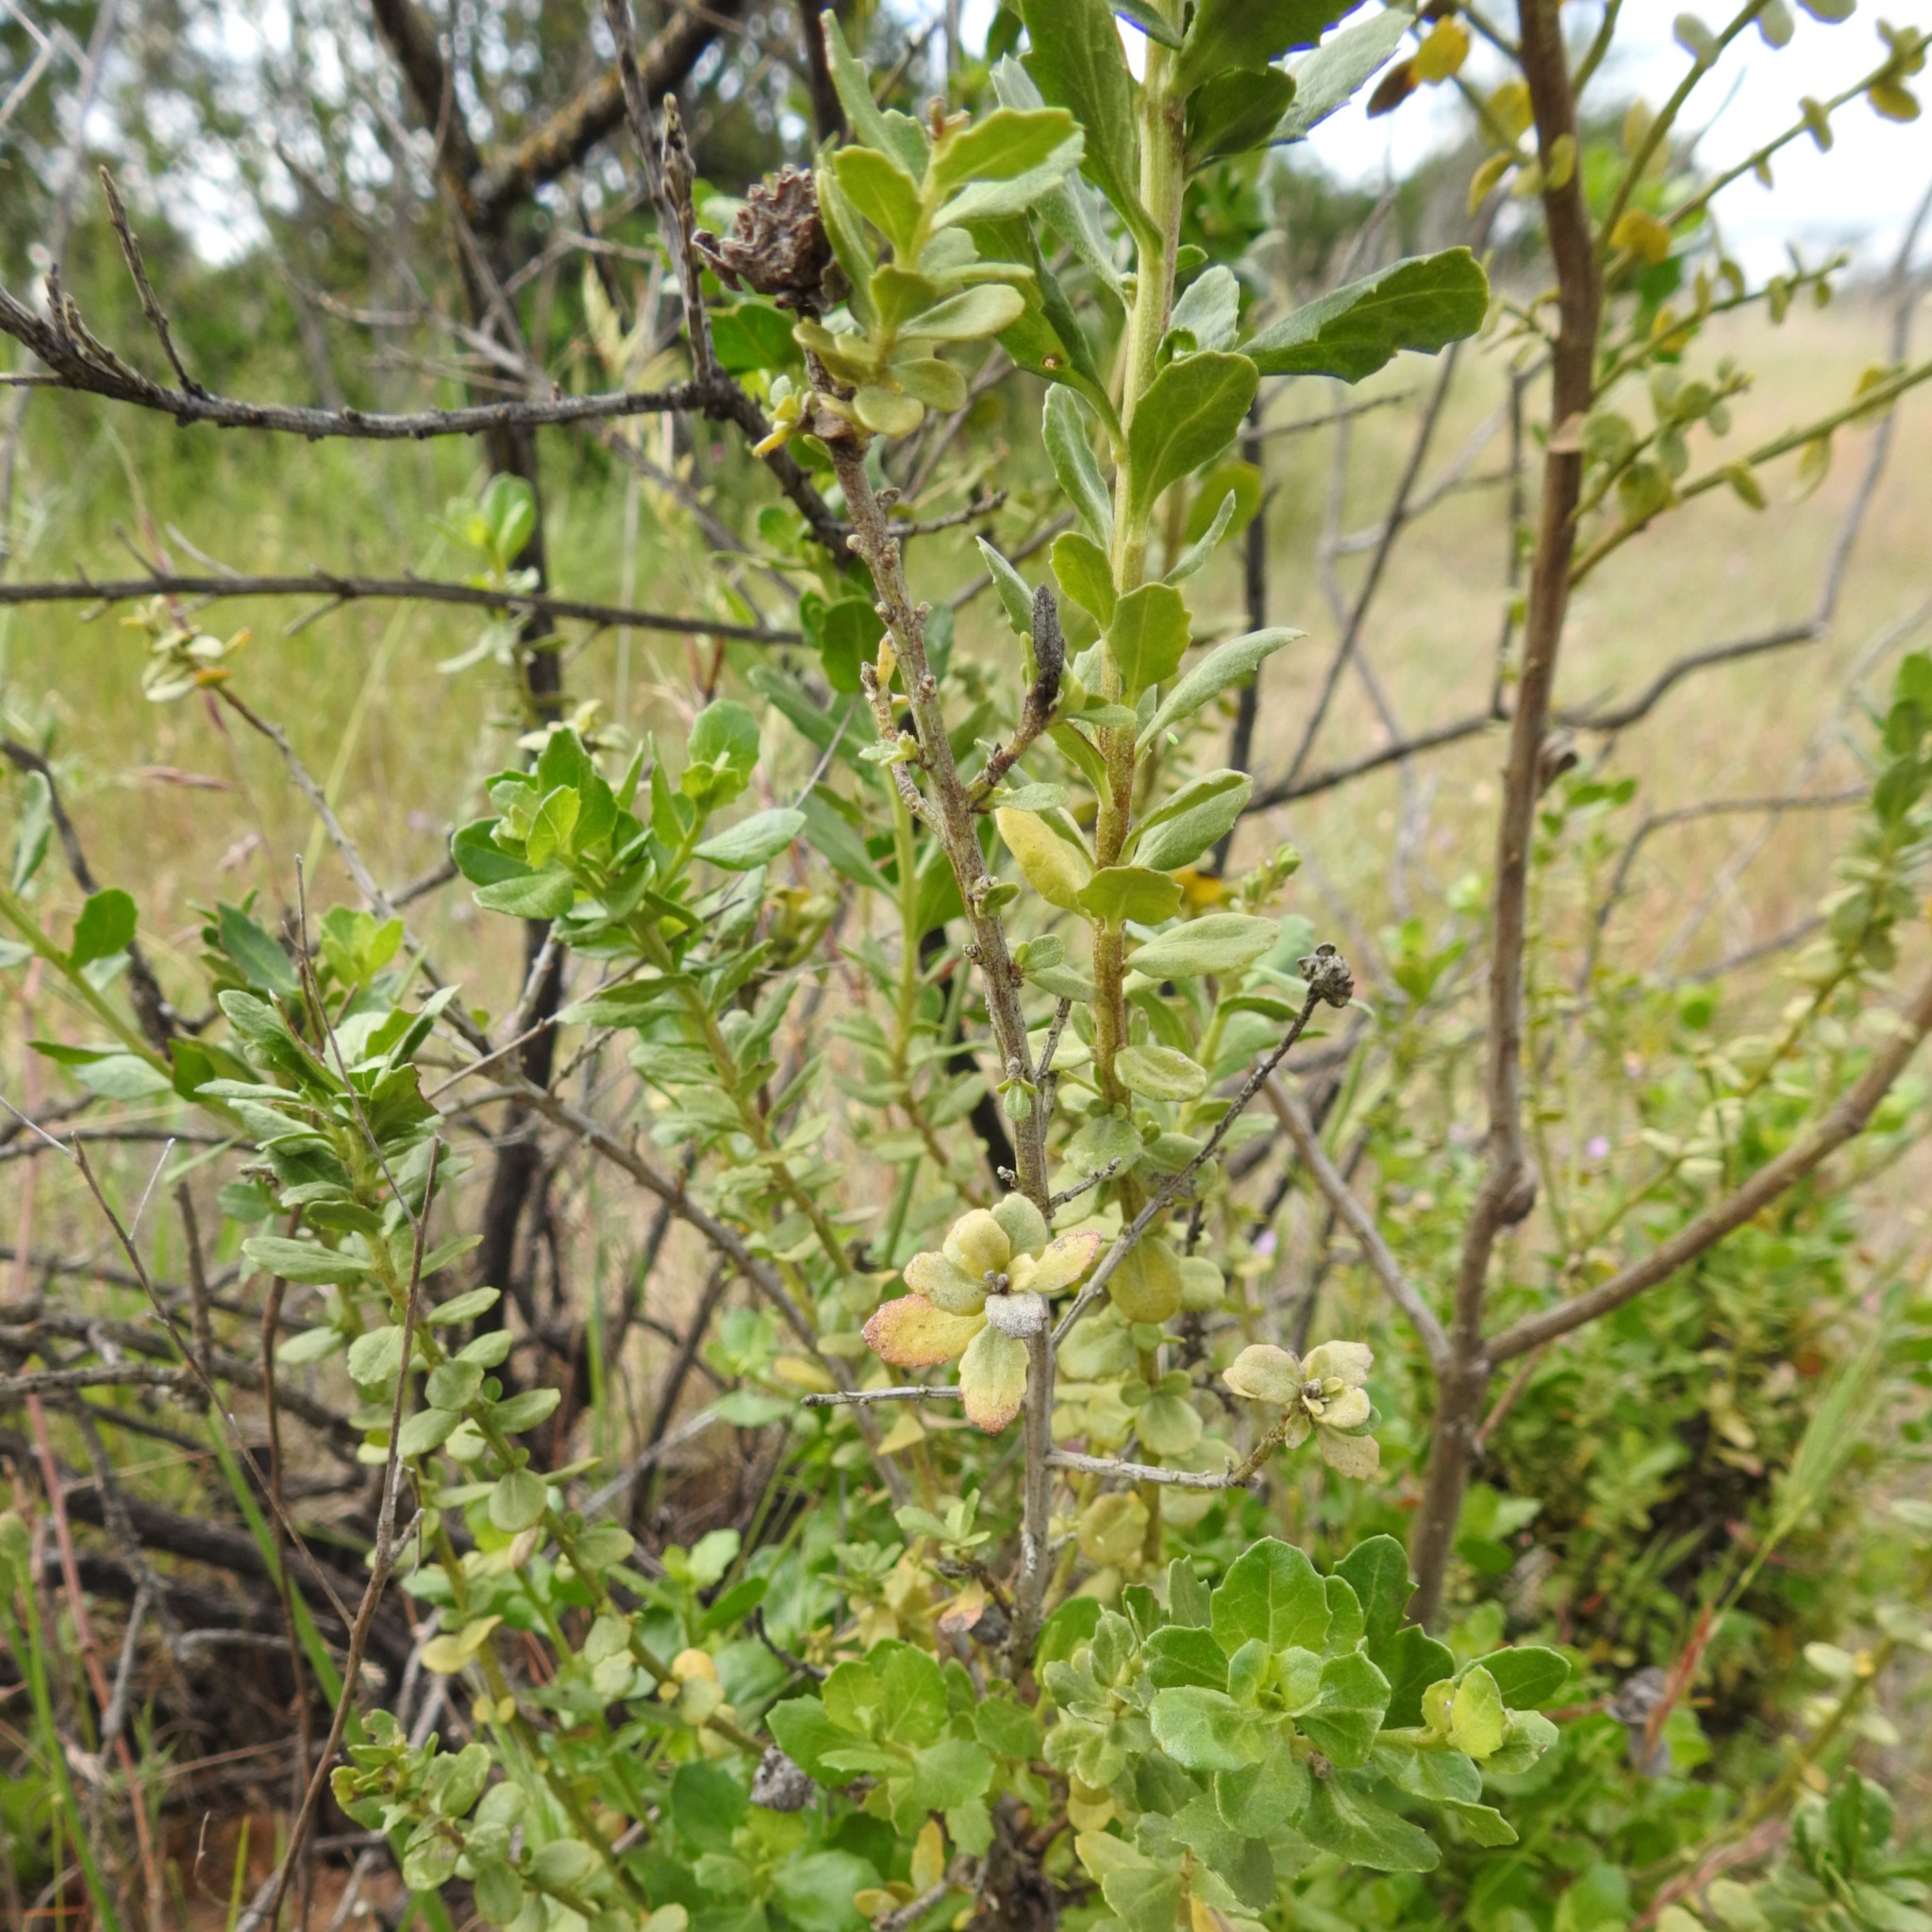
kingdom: Plantae
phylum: Tracheophyta
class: Magnoliopsida
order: Asterales
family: Asteraceae
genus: Baccharis
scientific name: Baccharis pilularis
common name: Coyotebrush
